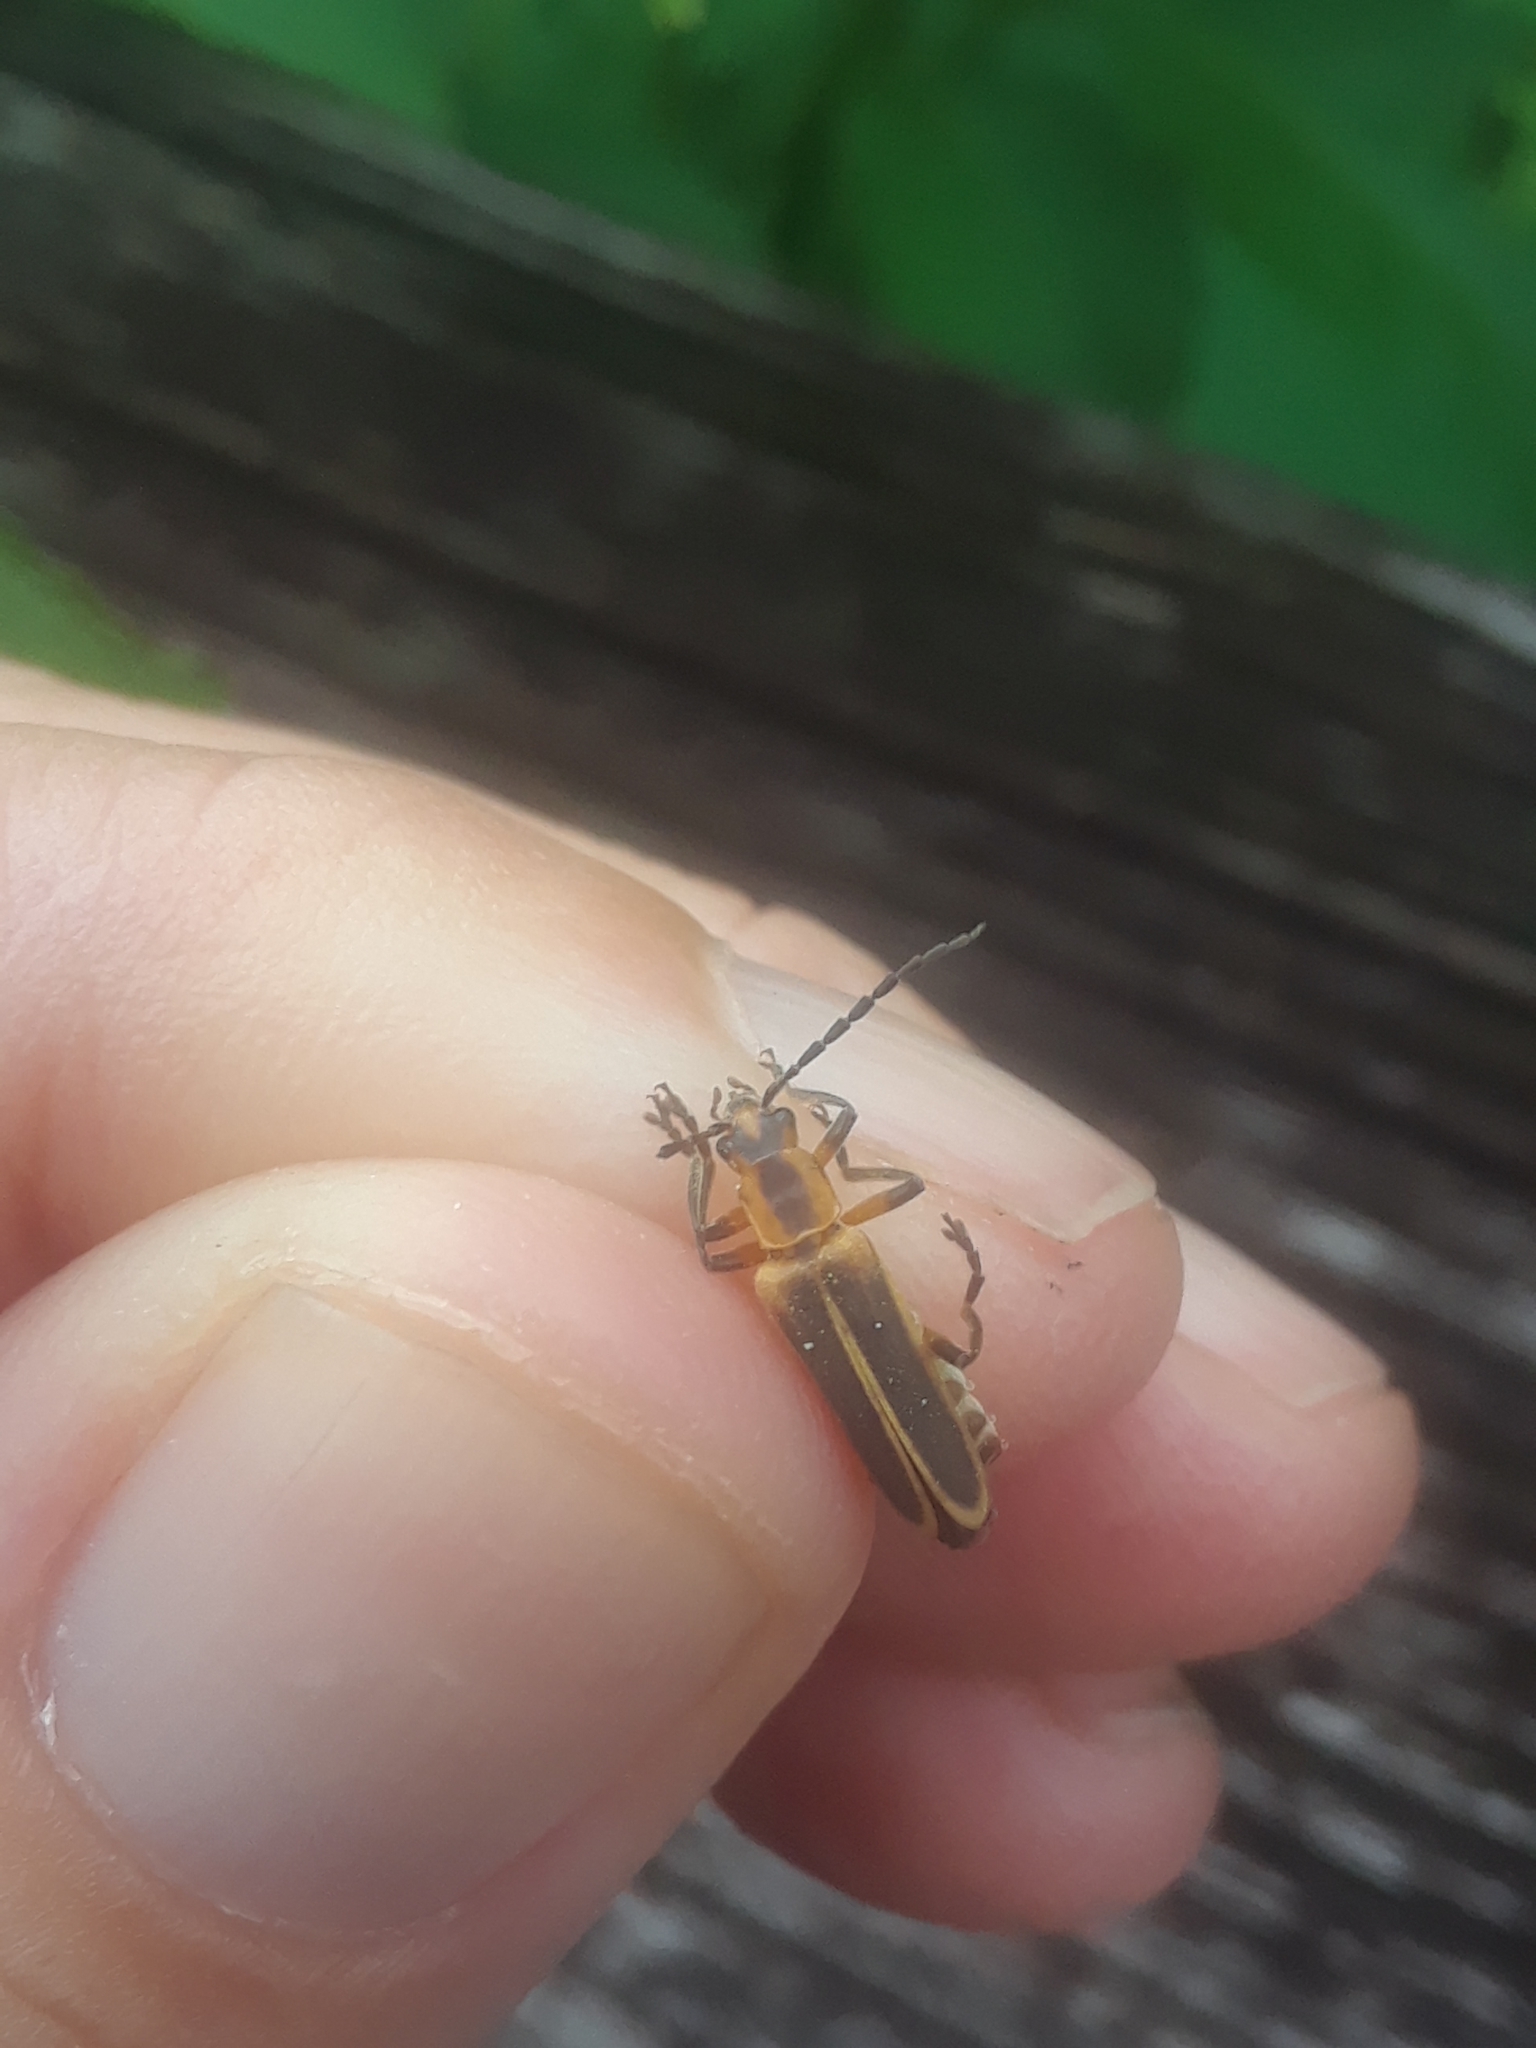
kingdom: Animalia
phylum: Arthropoda
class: Insecta
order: Coleoptera
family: Cantharidae
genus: Chauliognathus
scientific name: Chauliognathus marginatus
